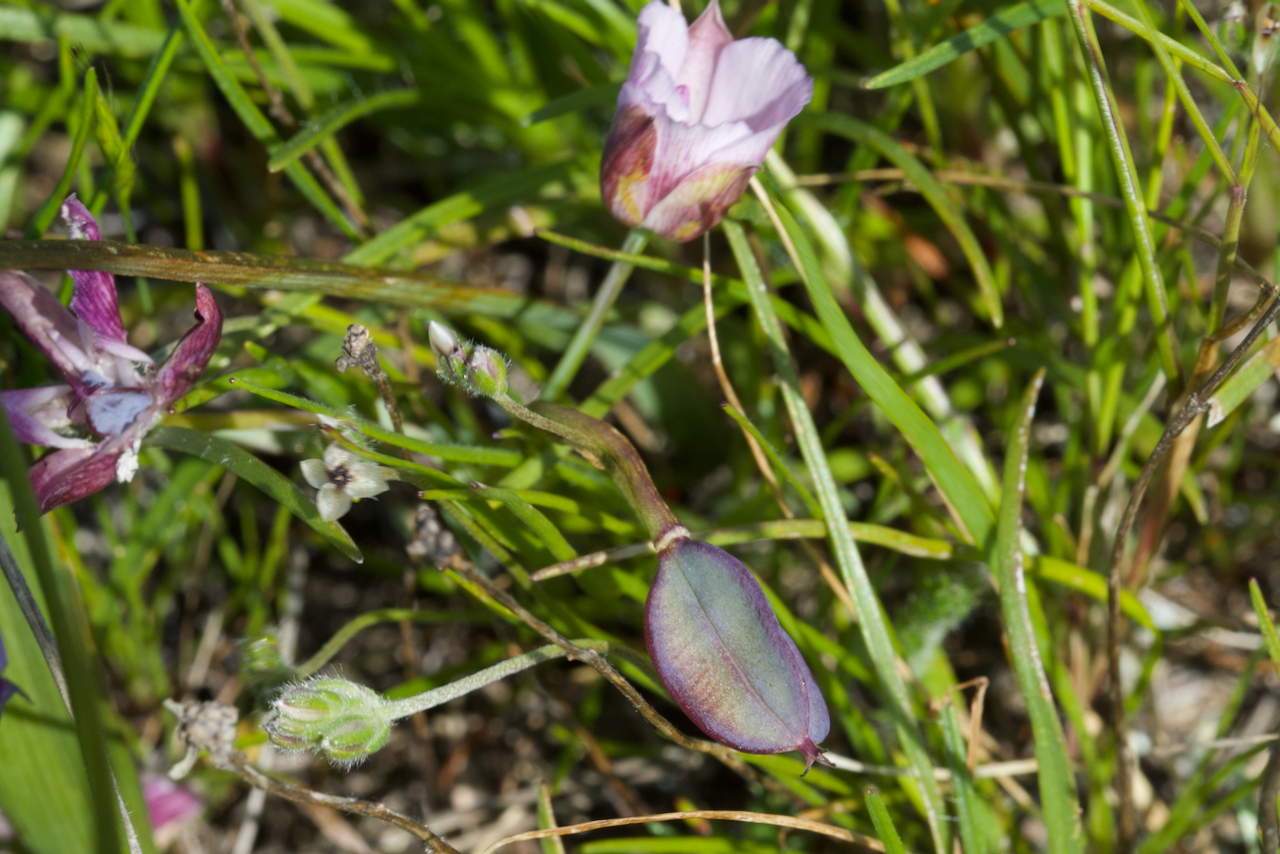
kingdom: Plantae
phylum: Tracheophyta
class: Liliopsida
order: Liliales
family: Liliaceae
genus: Calochortus
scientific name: Calochortus umbellatus
